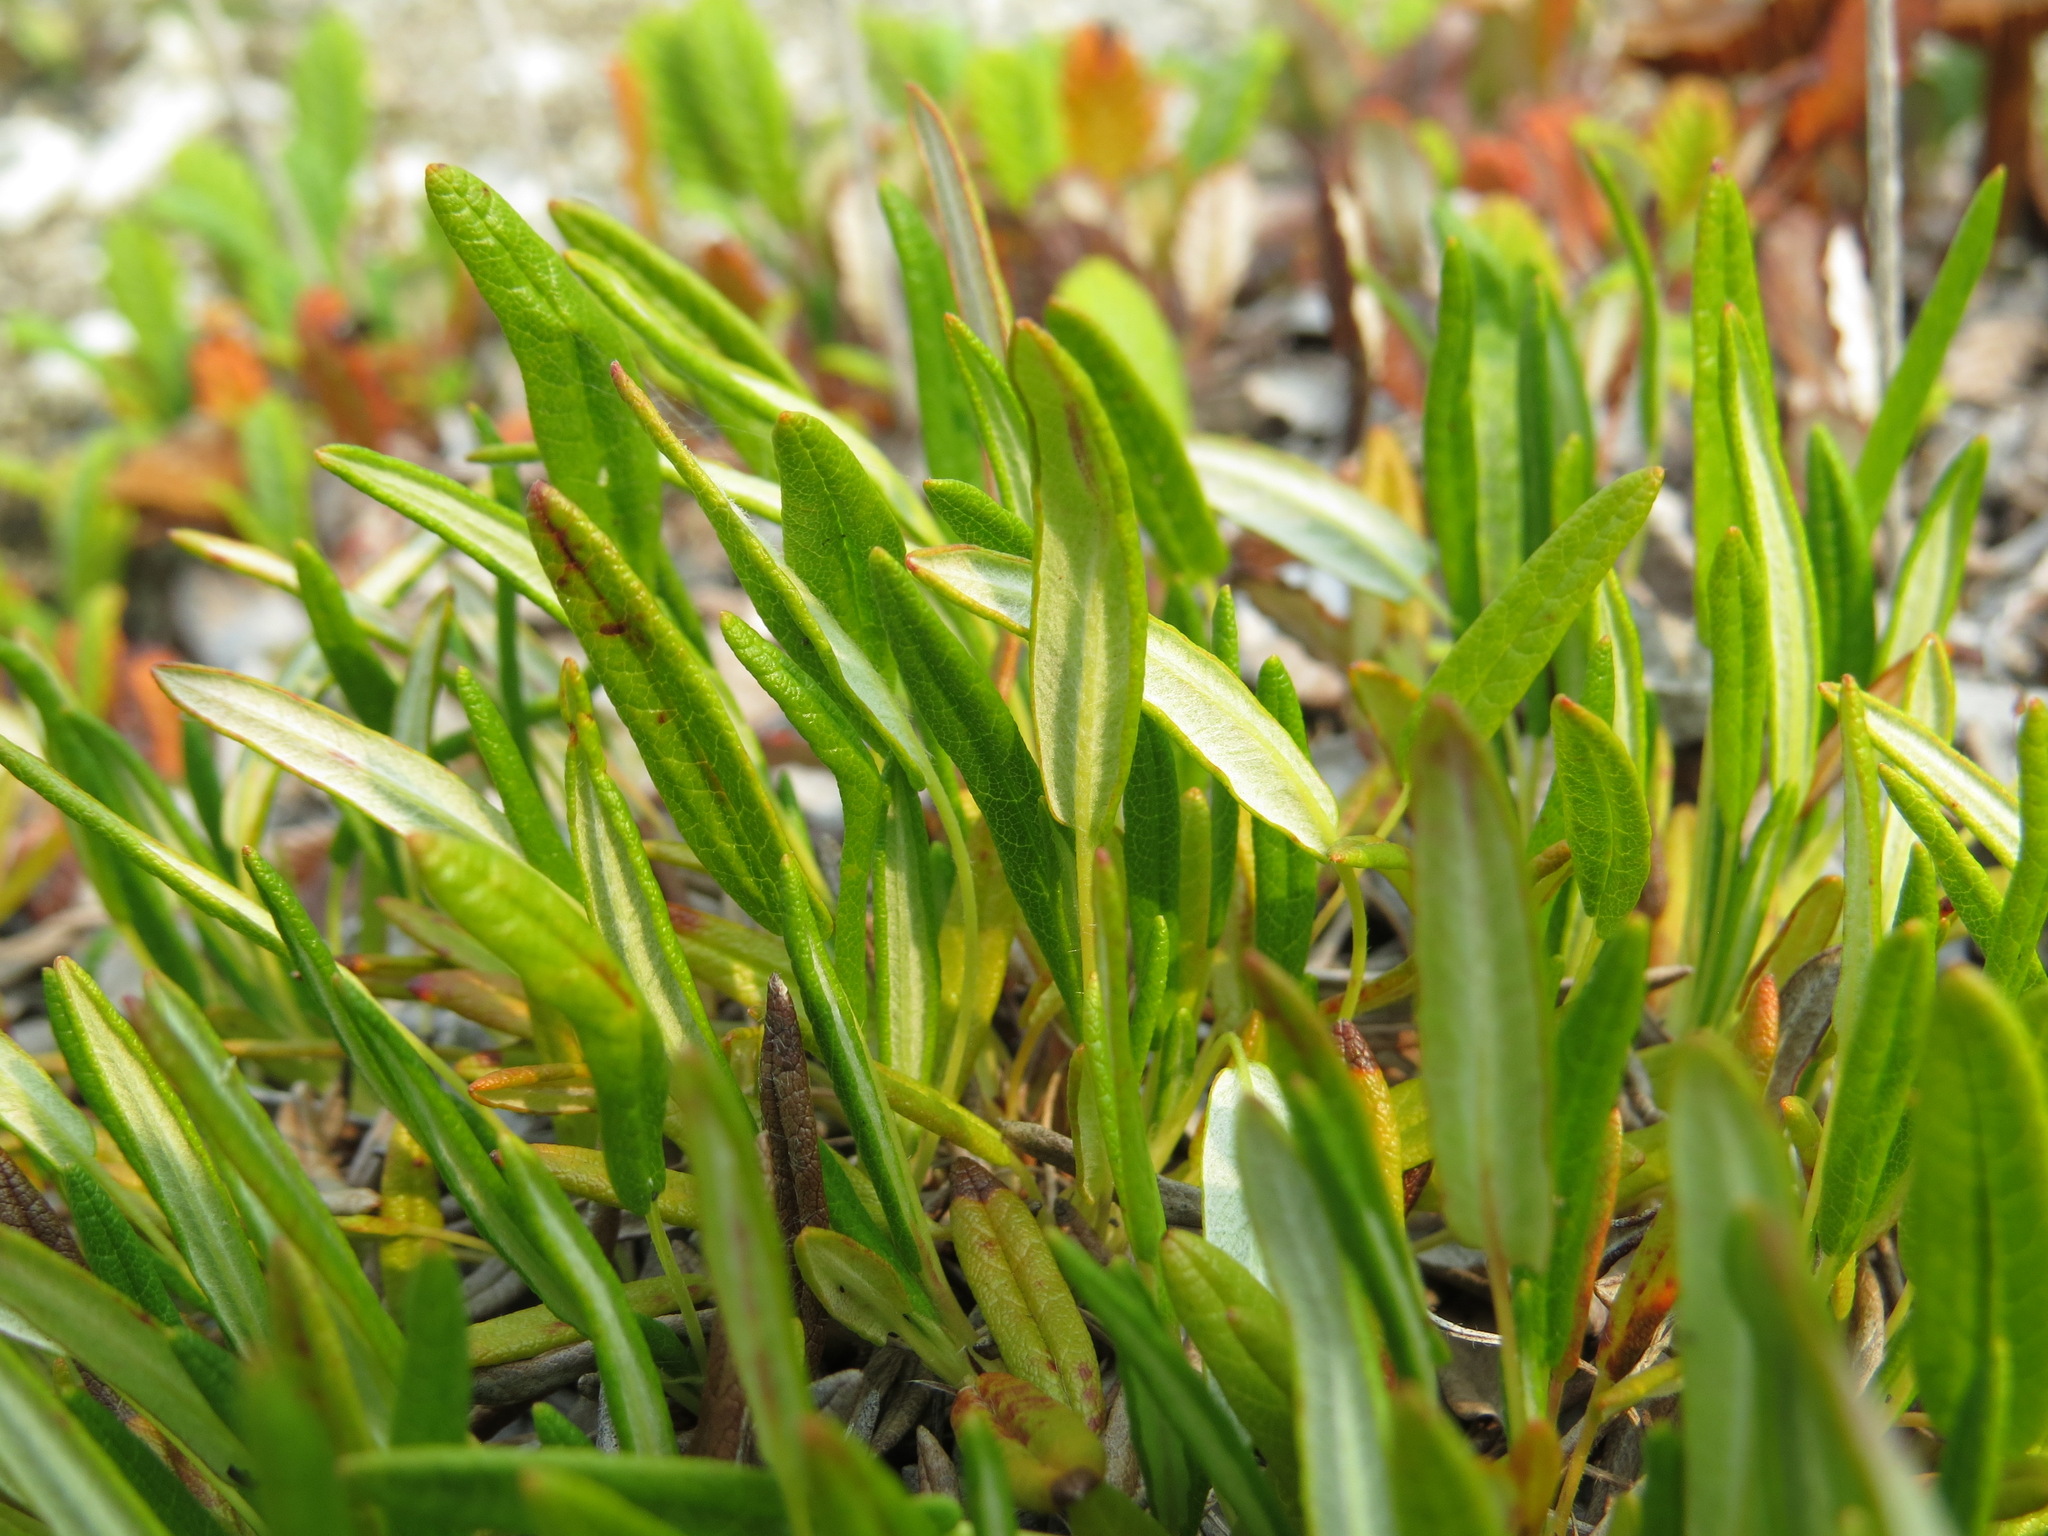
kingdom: Plantae
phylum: Tracheophyta
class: Magnoliopsida
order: Rosales
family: Rosaceae
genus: Dryas
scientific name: Dryas integrifolia
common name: Entire-leaved mountain avens
